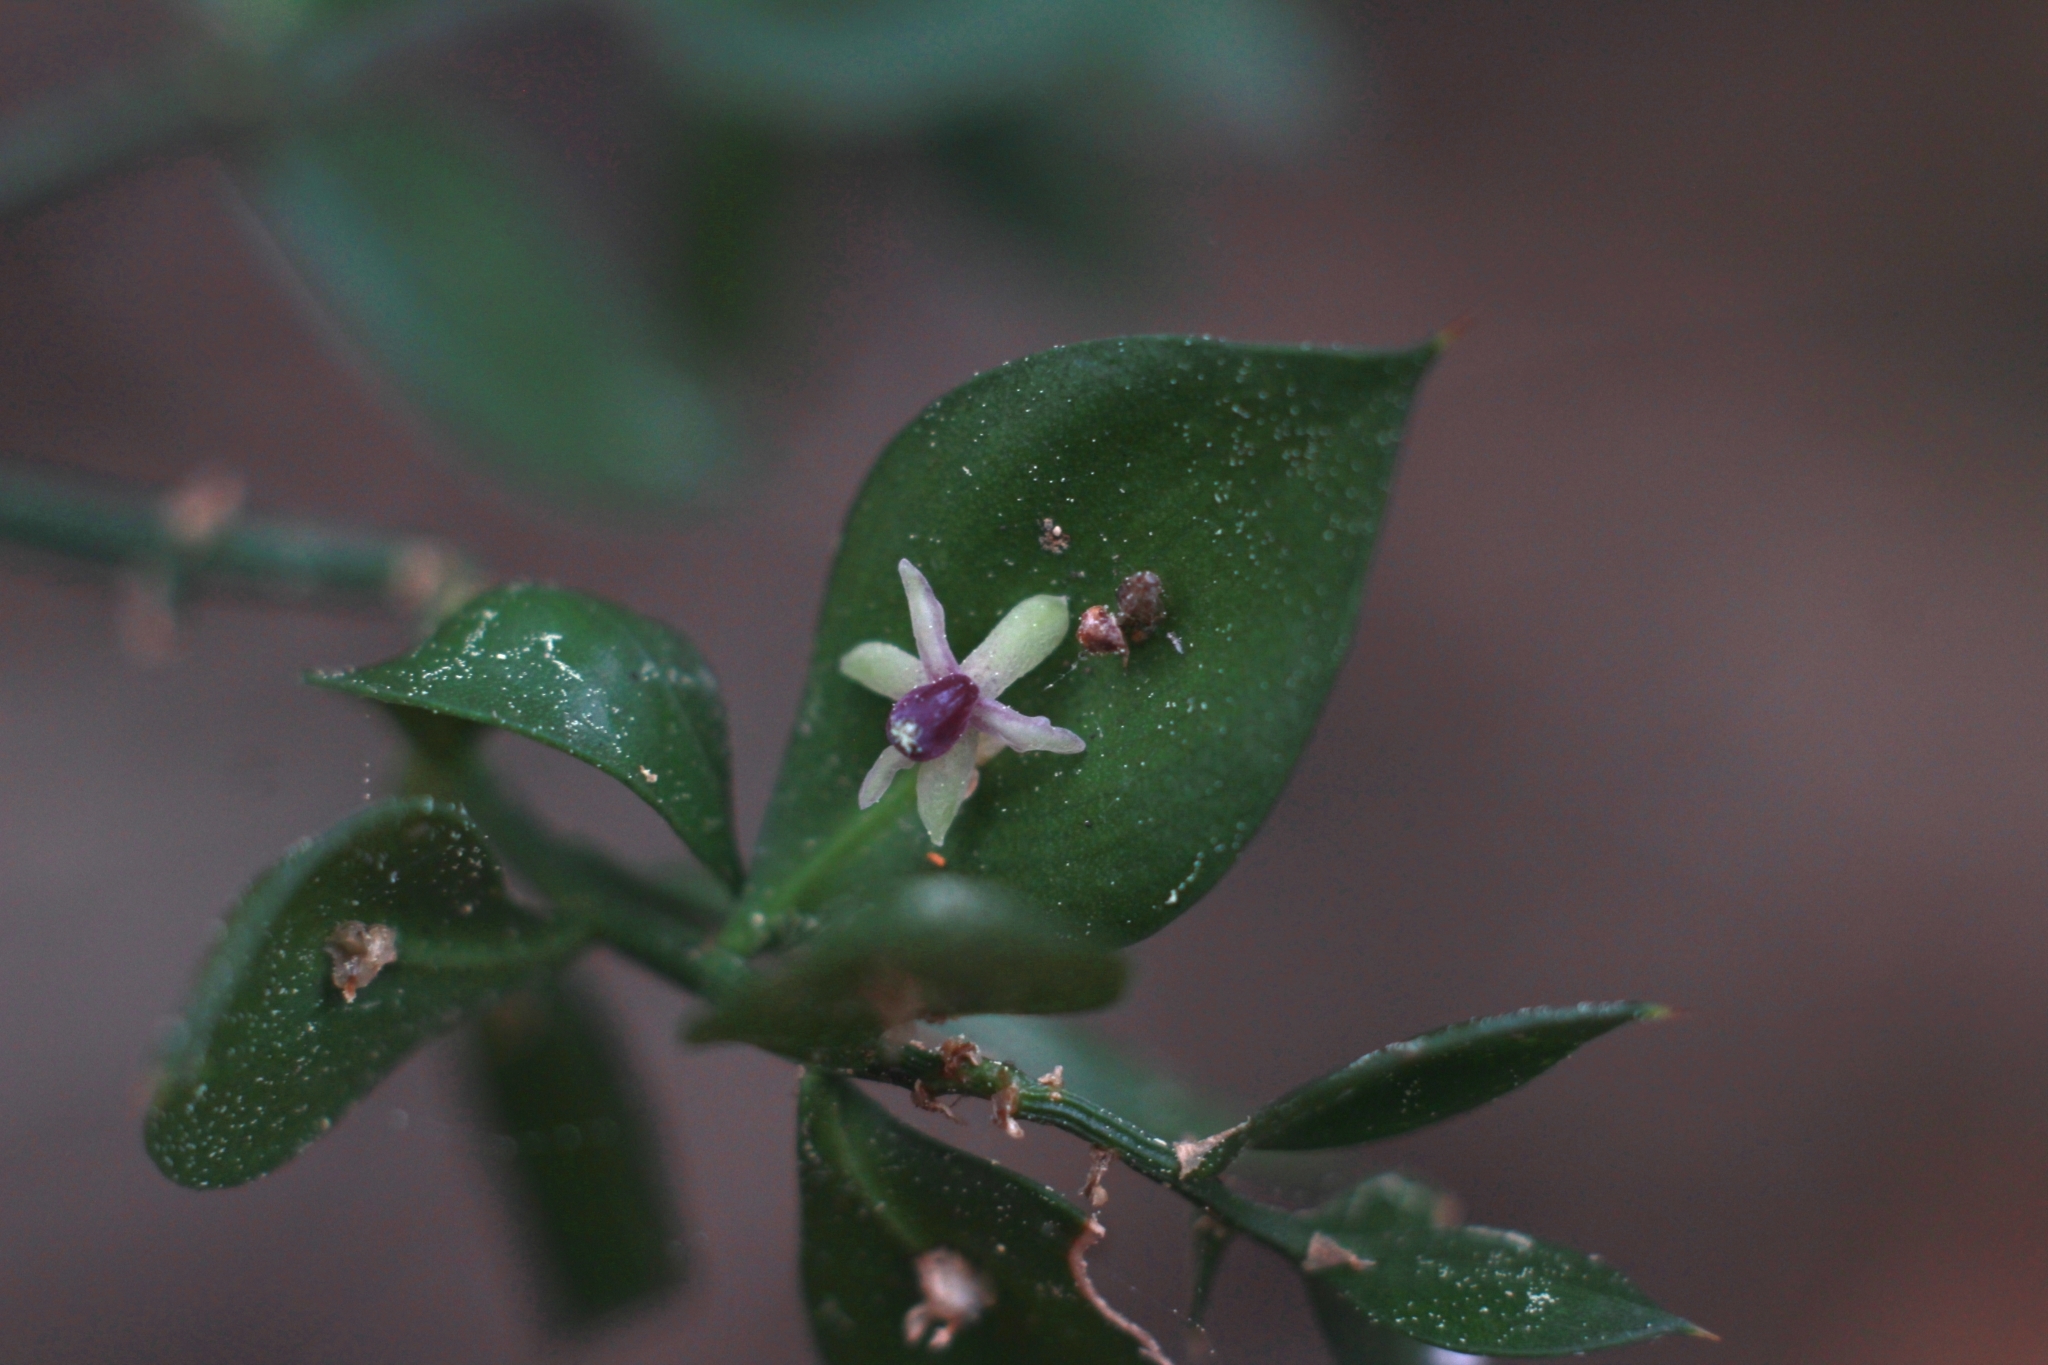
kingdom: Plantae
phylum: Tracheophyta
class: Liliopsida
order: Asparagales
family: Asparagaceae
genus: Ruscus
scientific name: Ruscus aculeatus
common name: Butcher's-broom
